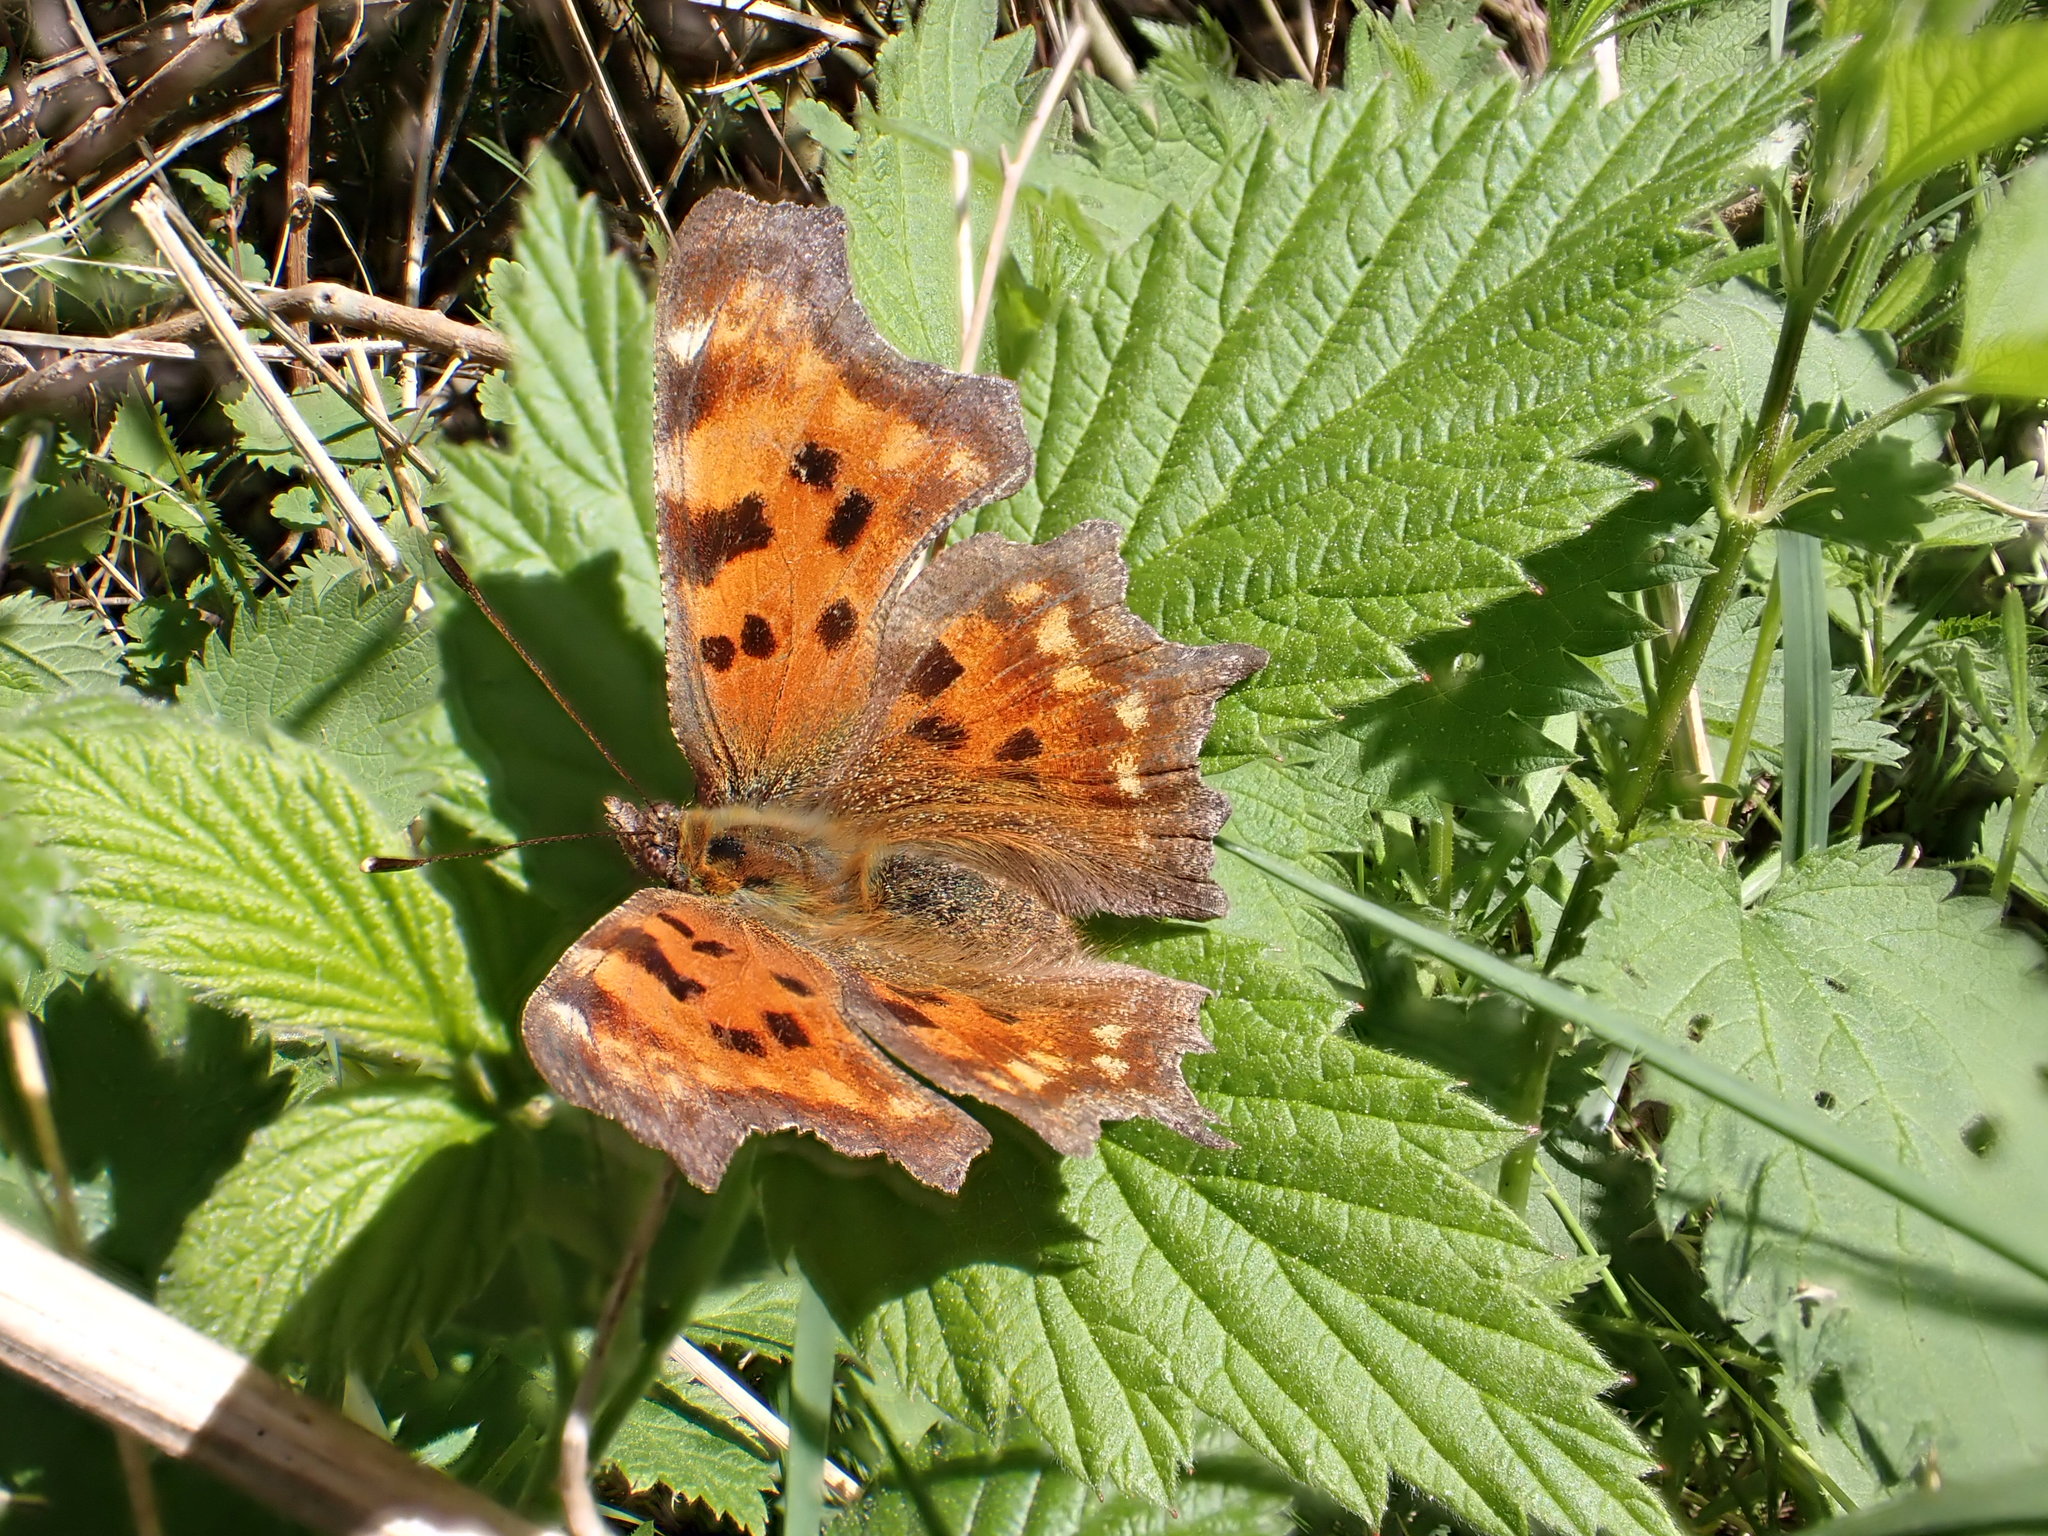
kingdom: Animalia
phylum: Arthropoda
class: Insecta
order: Lepidoptera
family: Nymphalidae
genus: Polygonia
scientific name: Polygonia c-album
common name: Comma
